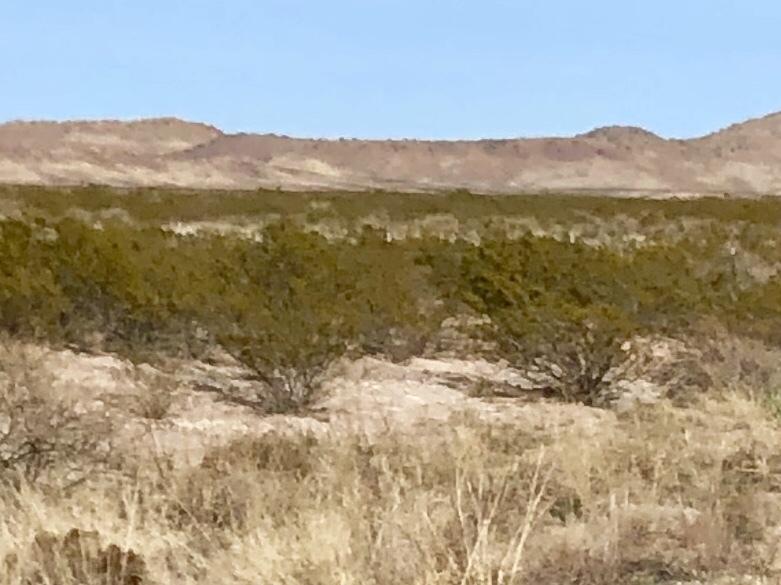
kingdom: Plantae
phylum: Tracheophyta
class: Magnoliopsida
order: Zygophyllales
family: Zygophyllaceae
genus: Larrea
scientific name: Larrea tridentata
